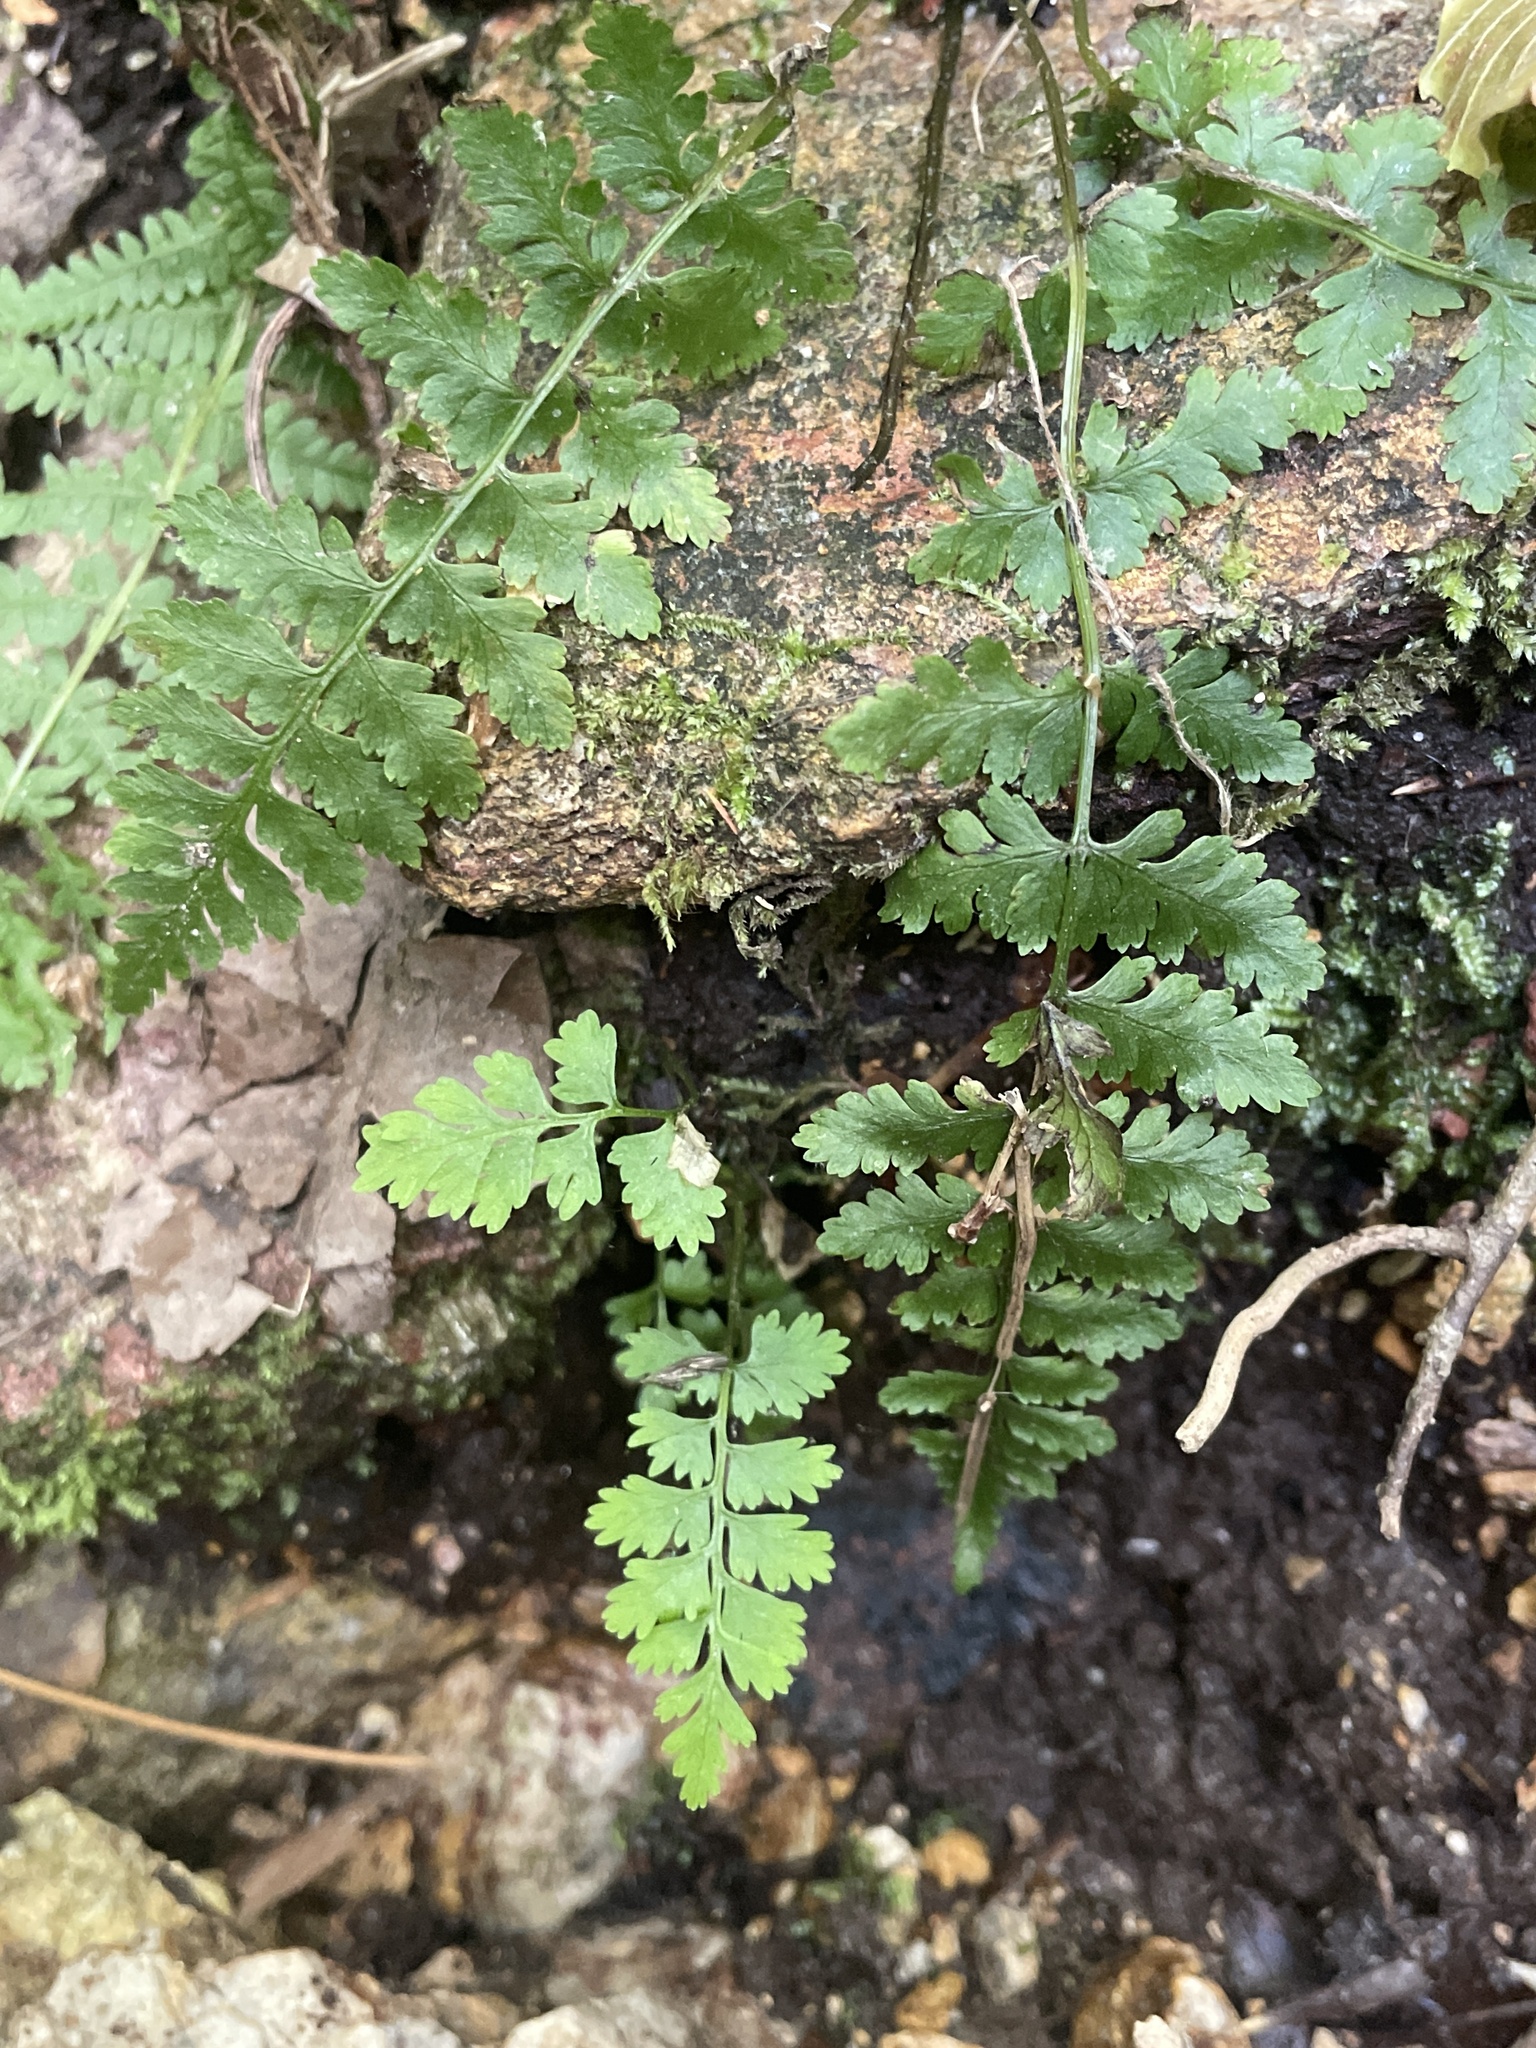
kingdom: Plantae
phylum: Tracheophyta
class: Polypodiopsida
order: Polypodiales
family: Athyriaceae
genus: Athyrium
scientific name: Athyrium asplenioides
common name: Southern lady fern
